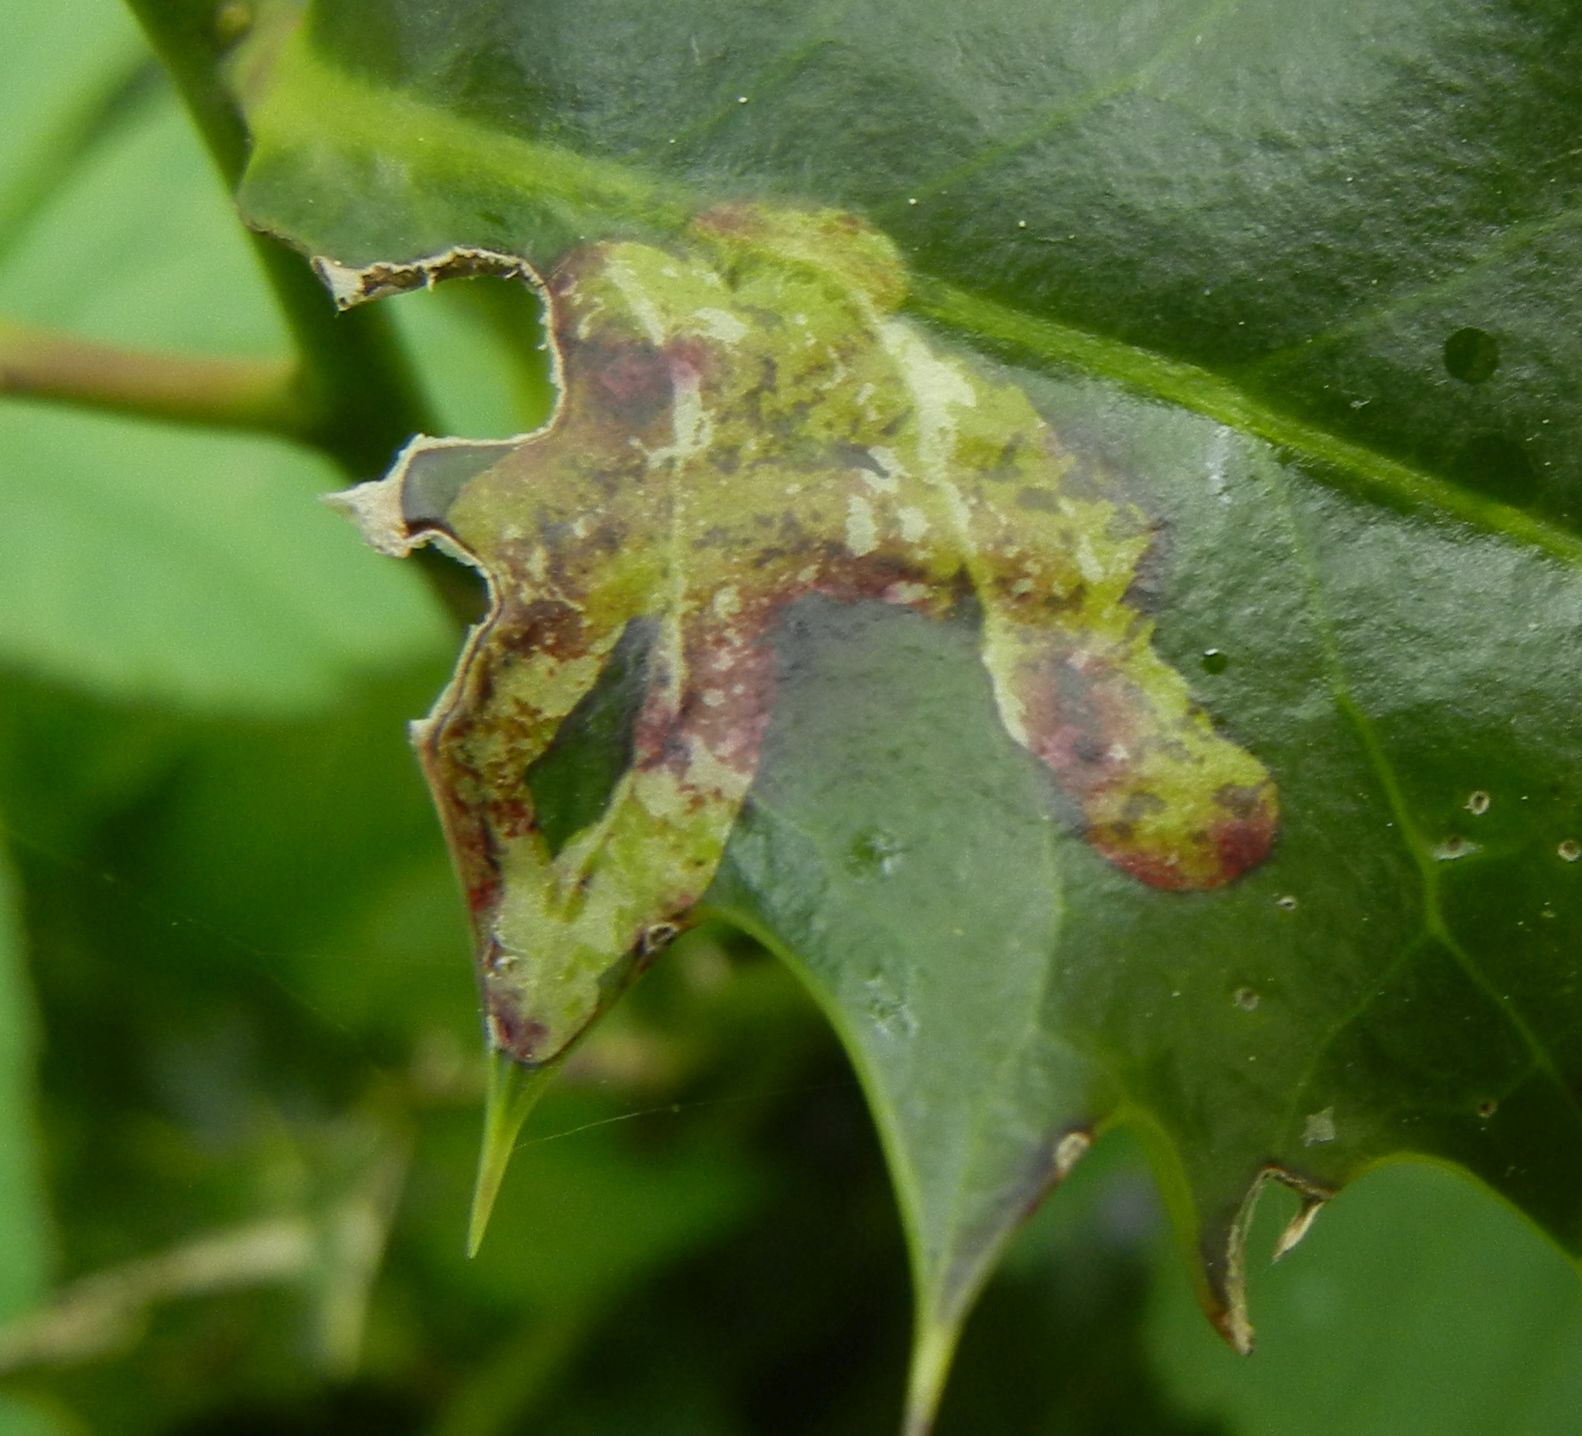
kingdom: Animalia
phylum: Arthropoda
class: Insecta
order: Diptera
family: Agromyzidae
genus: Phytomyza
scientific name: Phytomyza ilicis
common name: Holly leafminer
